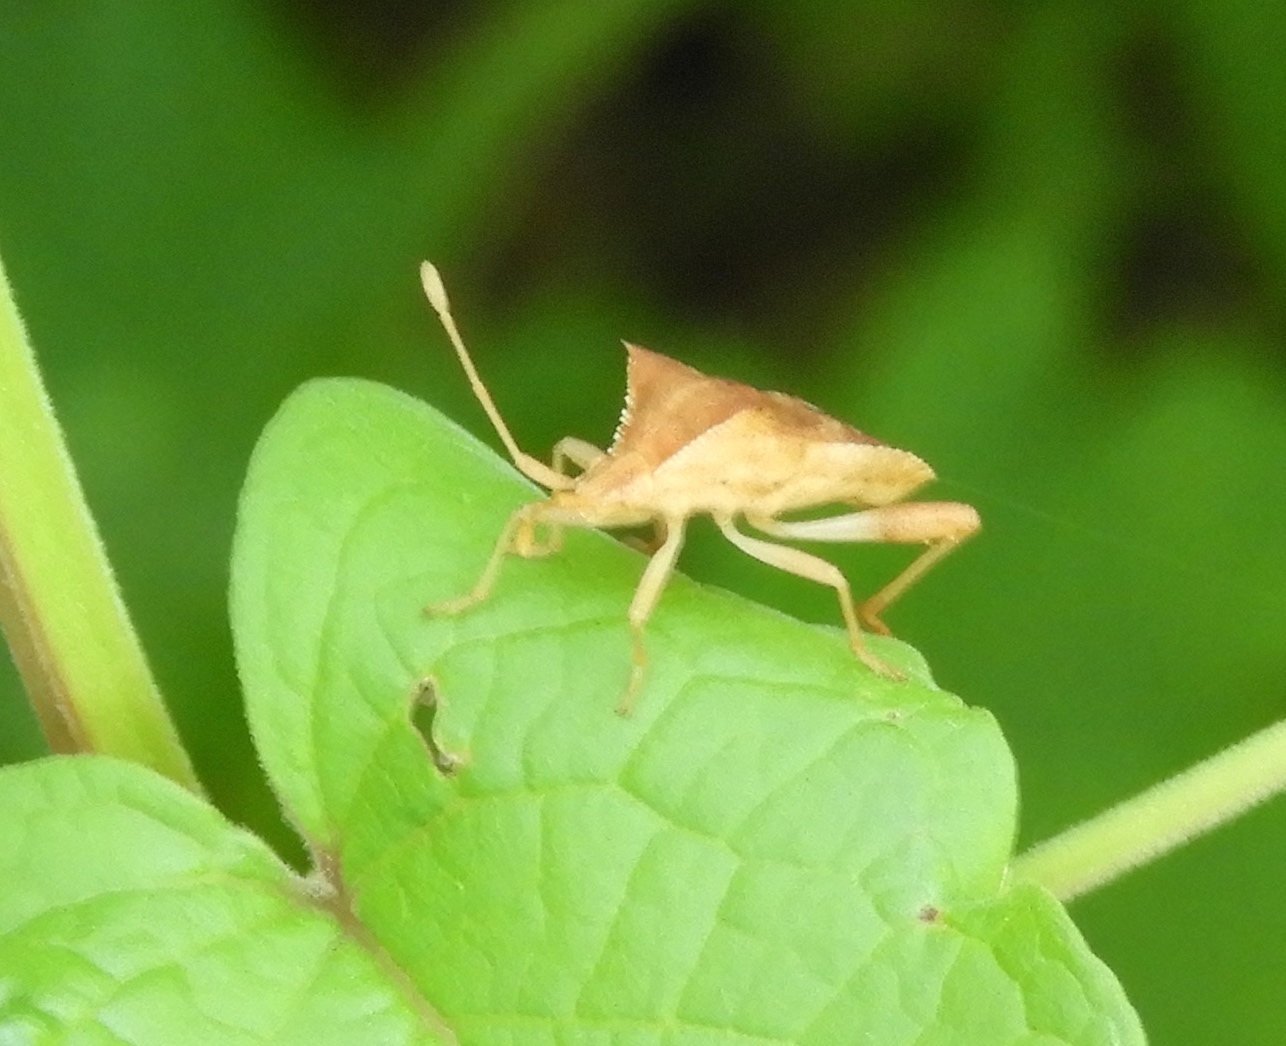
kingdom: Animalia
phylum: Arthropoda
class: Insecta
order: Hemiptera
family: Coreidae
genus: Dalmatomammurius
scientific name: Dalmatomammurius heissi
